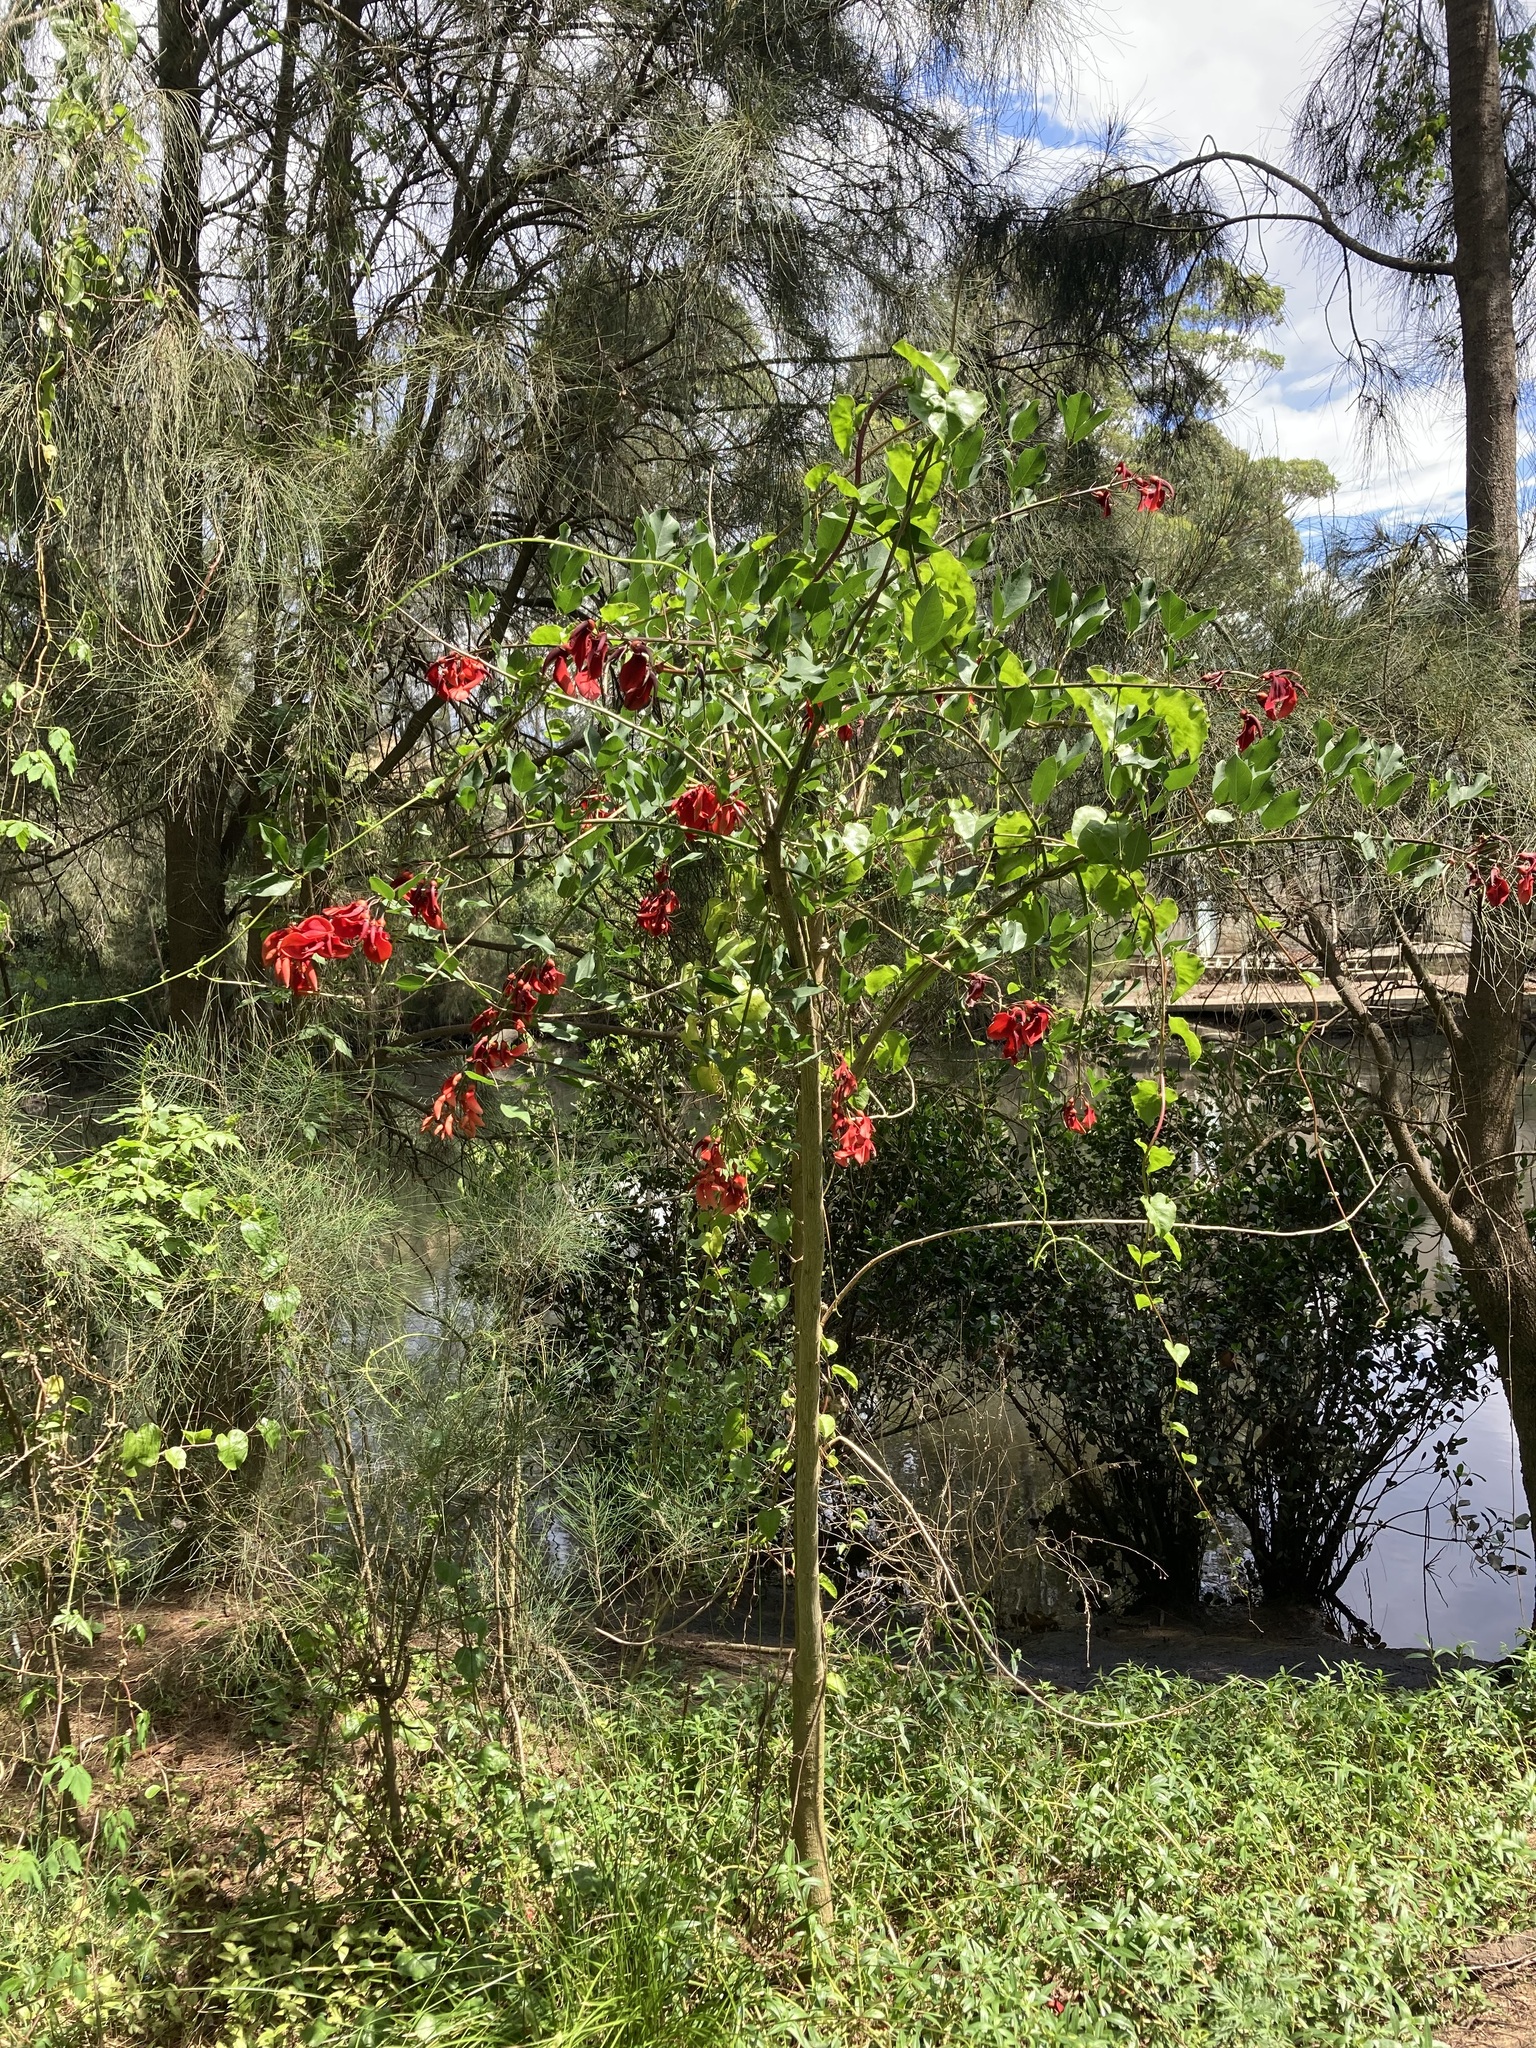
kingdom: Plantae
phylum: Tracheophyta
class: Magnoliopsida
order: Fabales
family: Fabaceae
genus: Erythrina
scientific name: Erythrina crista-galli
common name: Cockspur coral tree
